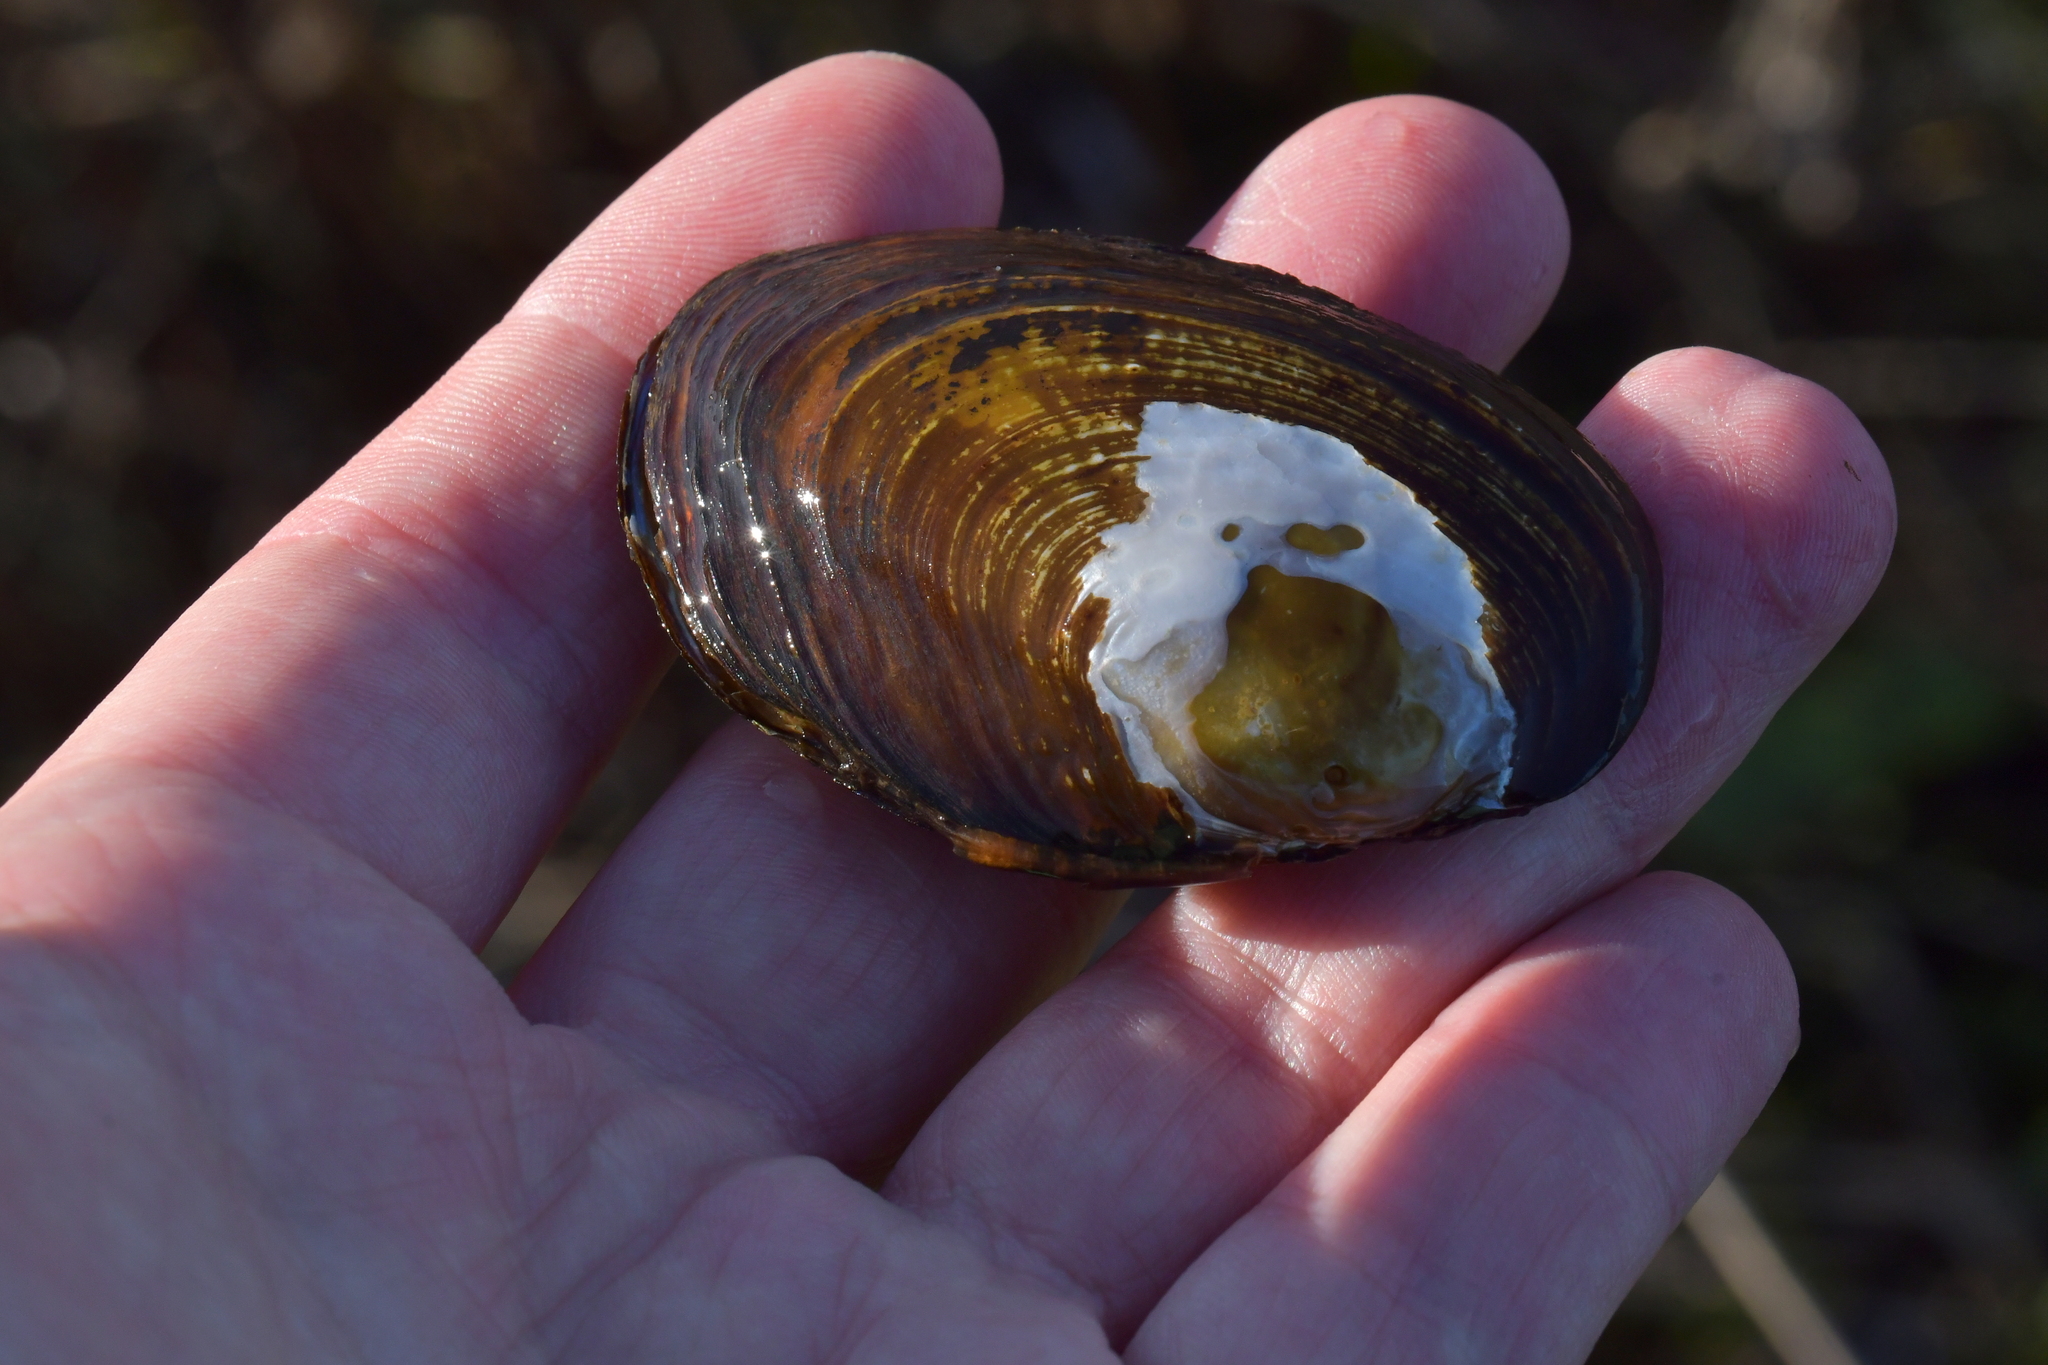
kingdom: Animalia
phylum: Mollusca
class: Bivalvia
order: Unionida
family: Hyriidae
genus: Echyridella
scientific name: Echyridella menziesii
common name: New zealand freshwater mussel
